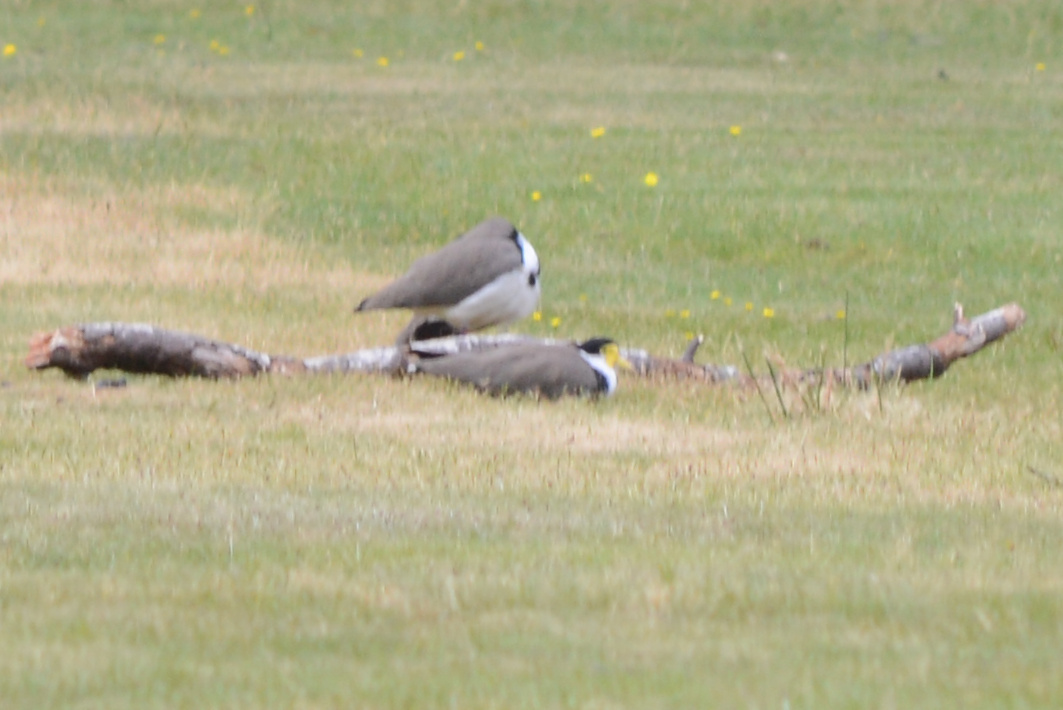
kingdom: Animalia
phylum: Chordata
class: Aves
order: Charadriiformes
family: Charadriidae
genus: Vanellus
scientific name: Vanellus miles
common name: Masked lapwing
